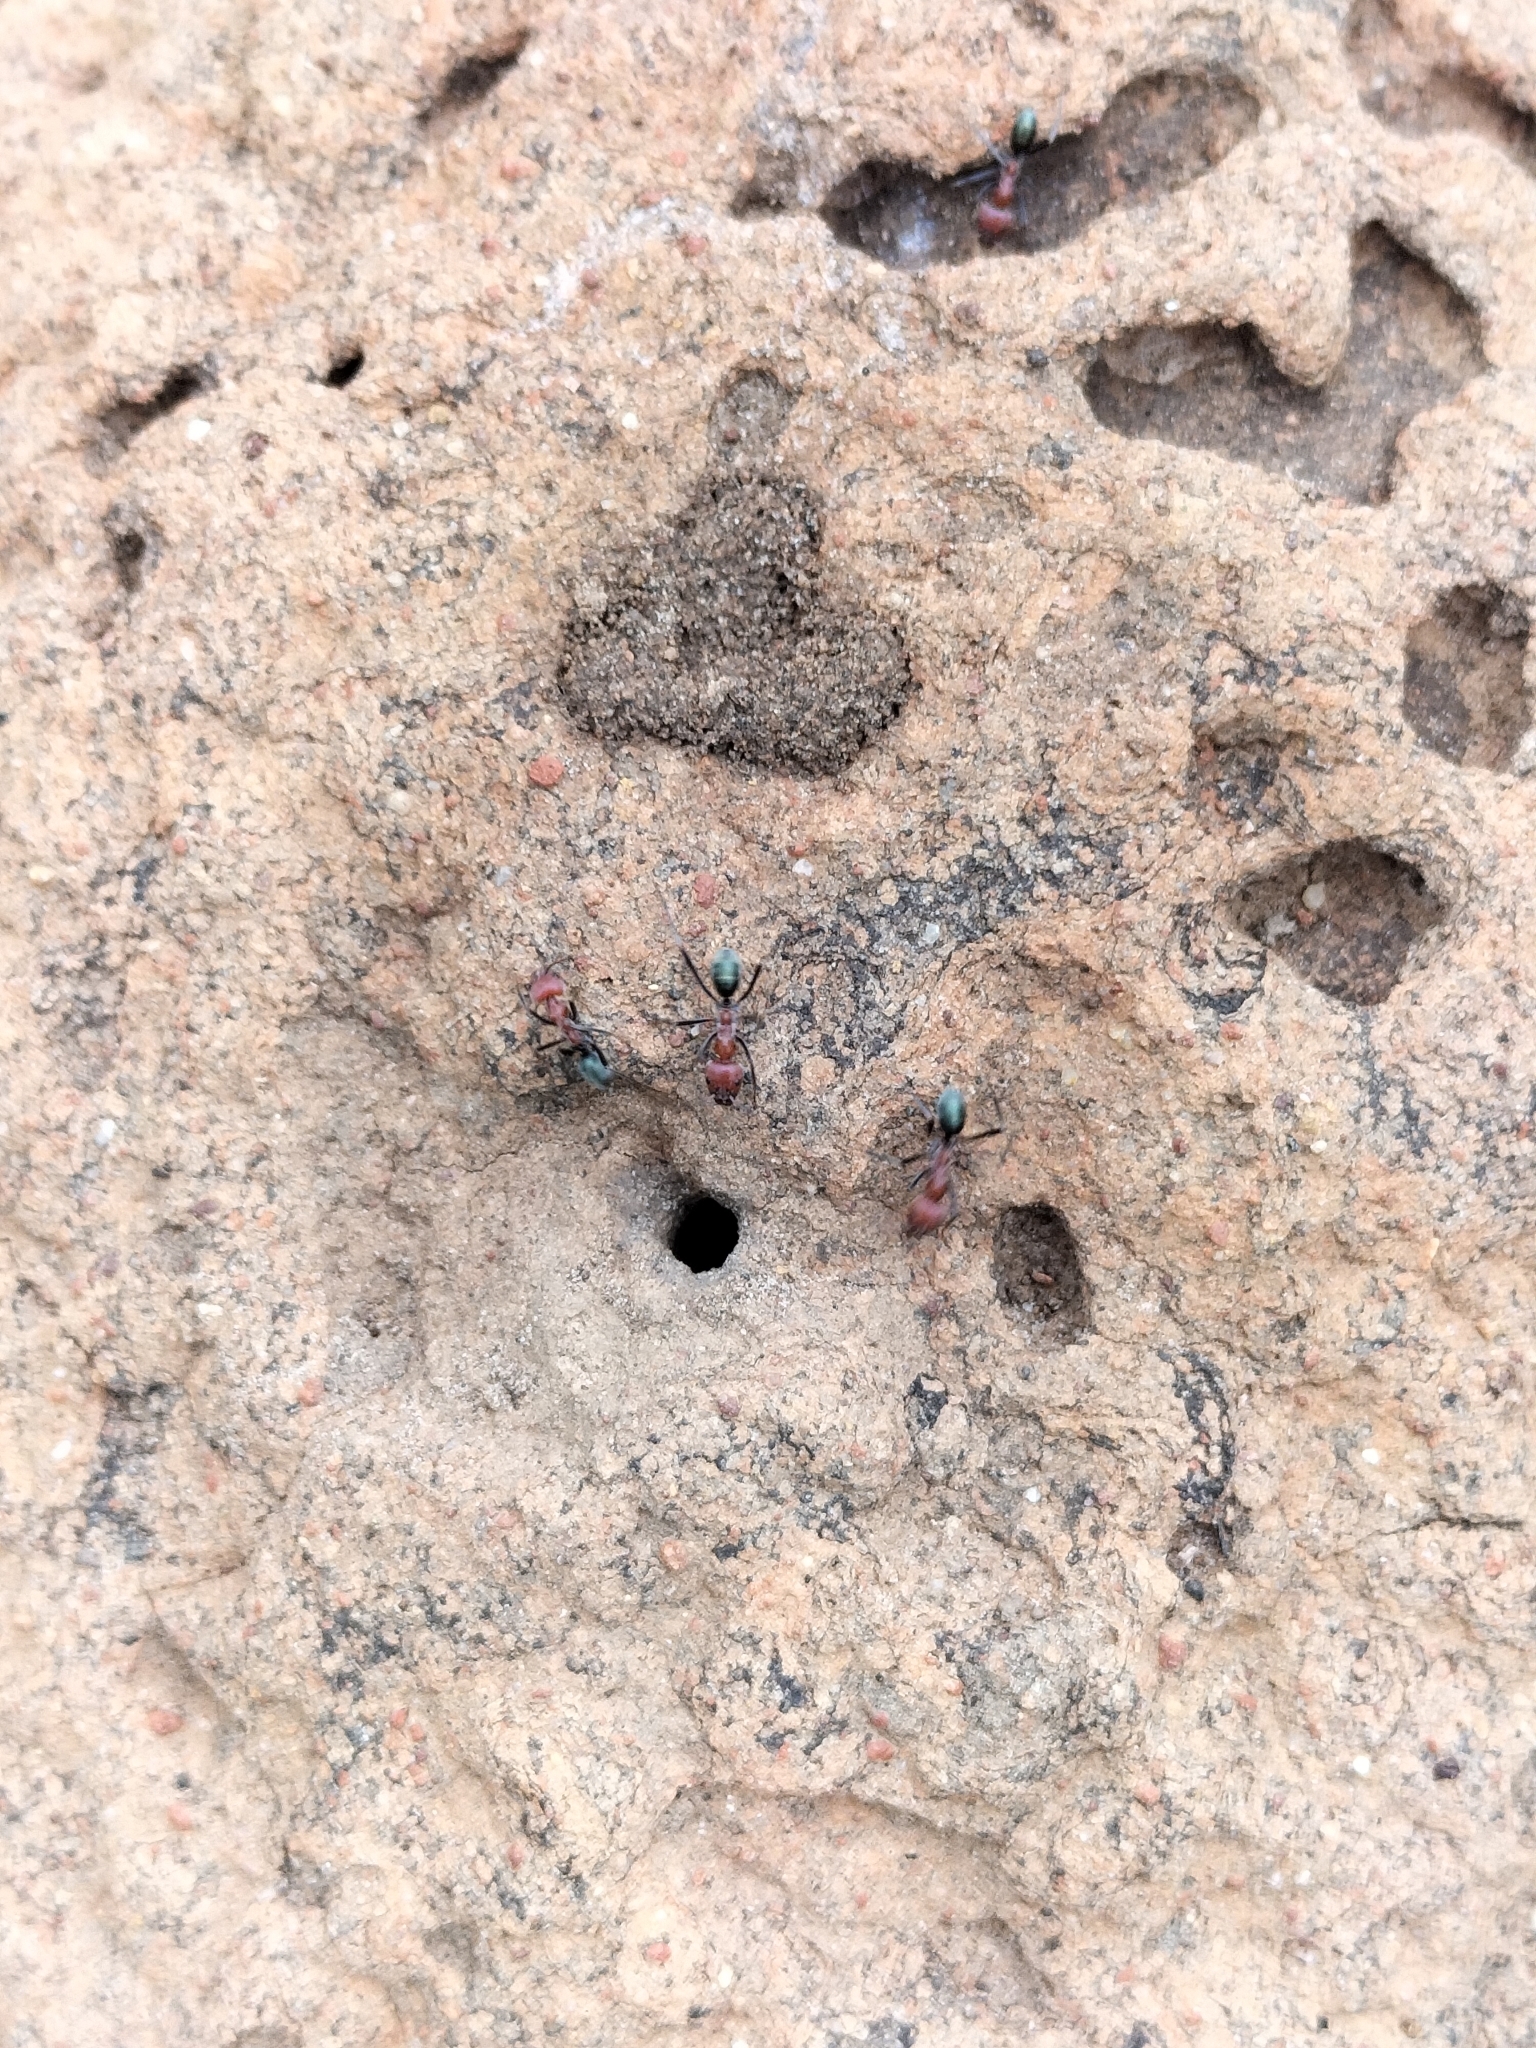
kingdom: Animalia
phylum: Arthropoda
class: Insecta
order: Hymenoptera
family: Formicidae
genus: Iridomyrmex
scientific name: Iridomyrmex sanguineus
